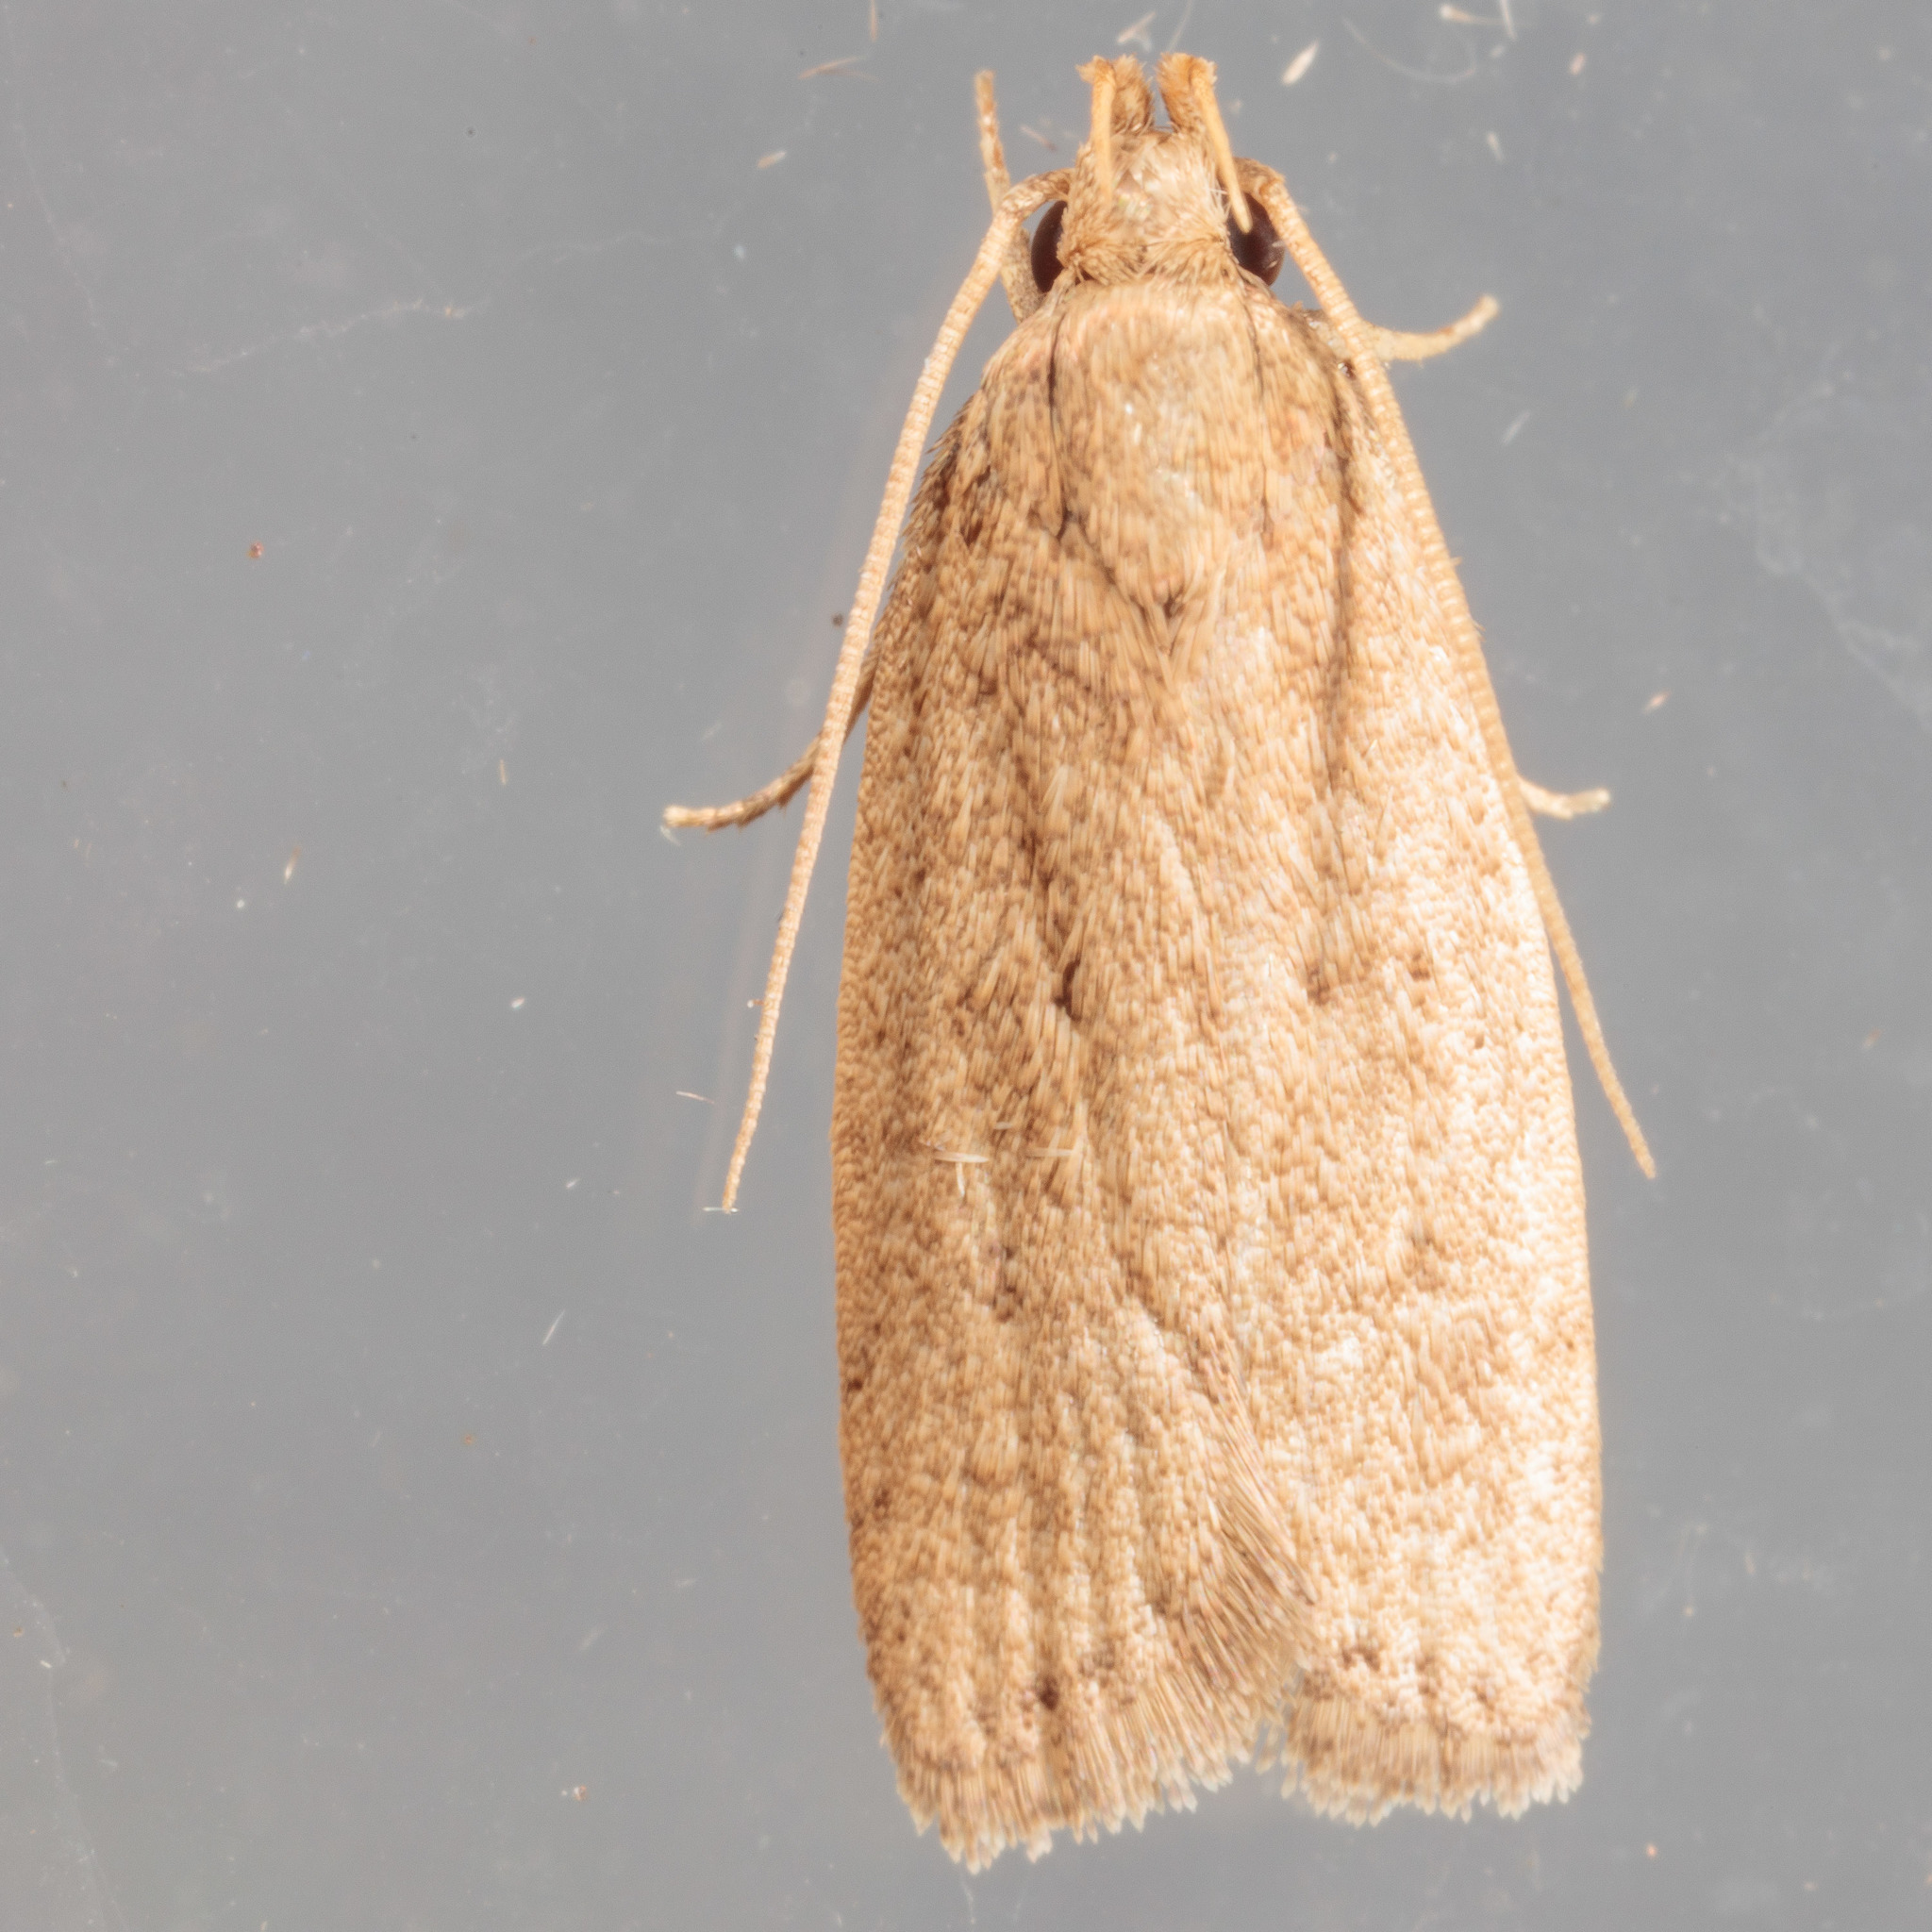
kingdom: Animalia
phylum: Arthropoda
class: Insecta
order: Lepidoptera
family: Autostichidae
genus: Autosticha
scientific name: Autosticha kyotensis
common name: Kyoto moth
